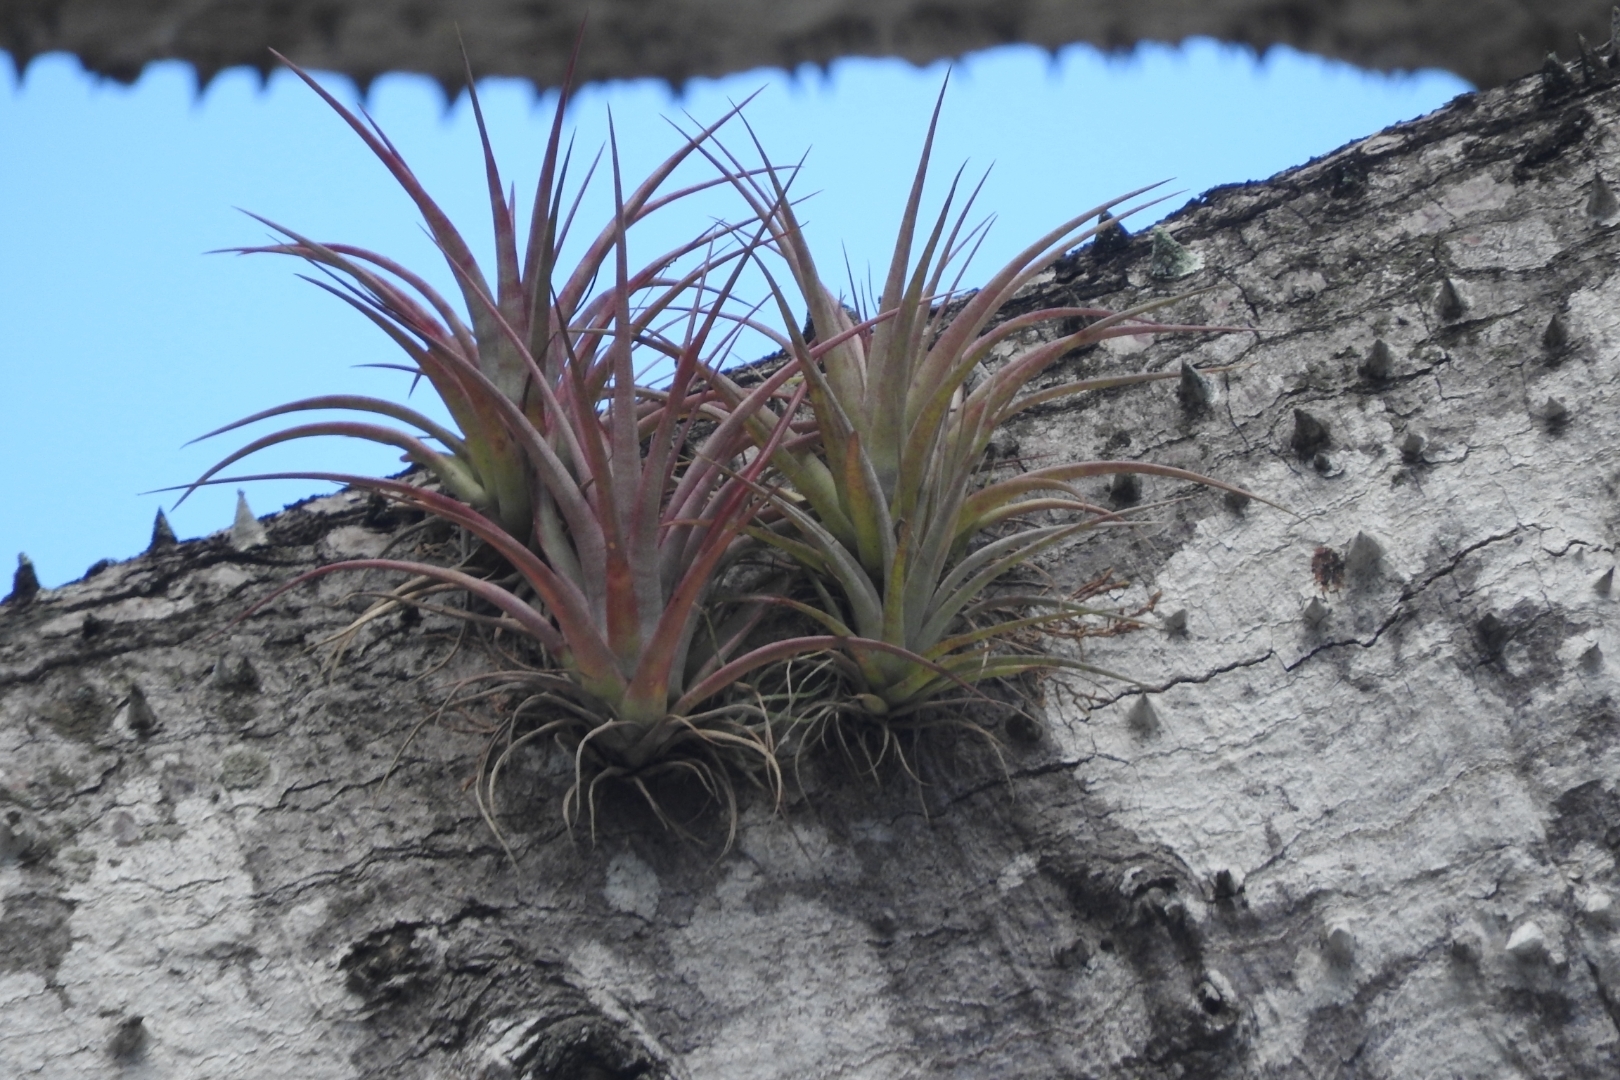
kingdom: Plantae
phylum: Tracheophyta
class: Liliopsida
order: Poales
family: Bromeliaceae
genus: Tillandsia
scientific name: Tillandsia fasciculata
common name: Giant airplant
